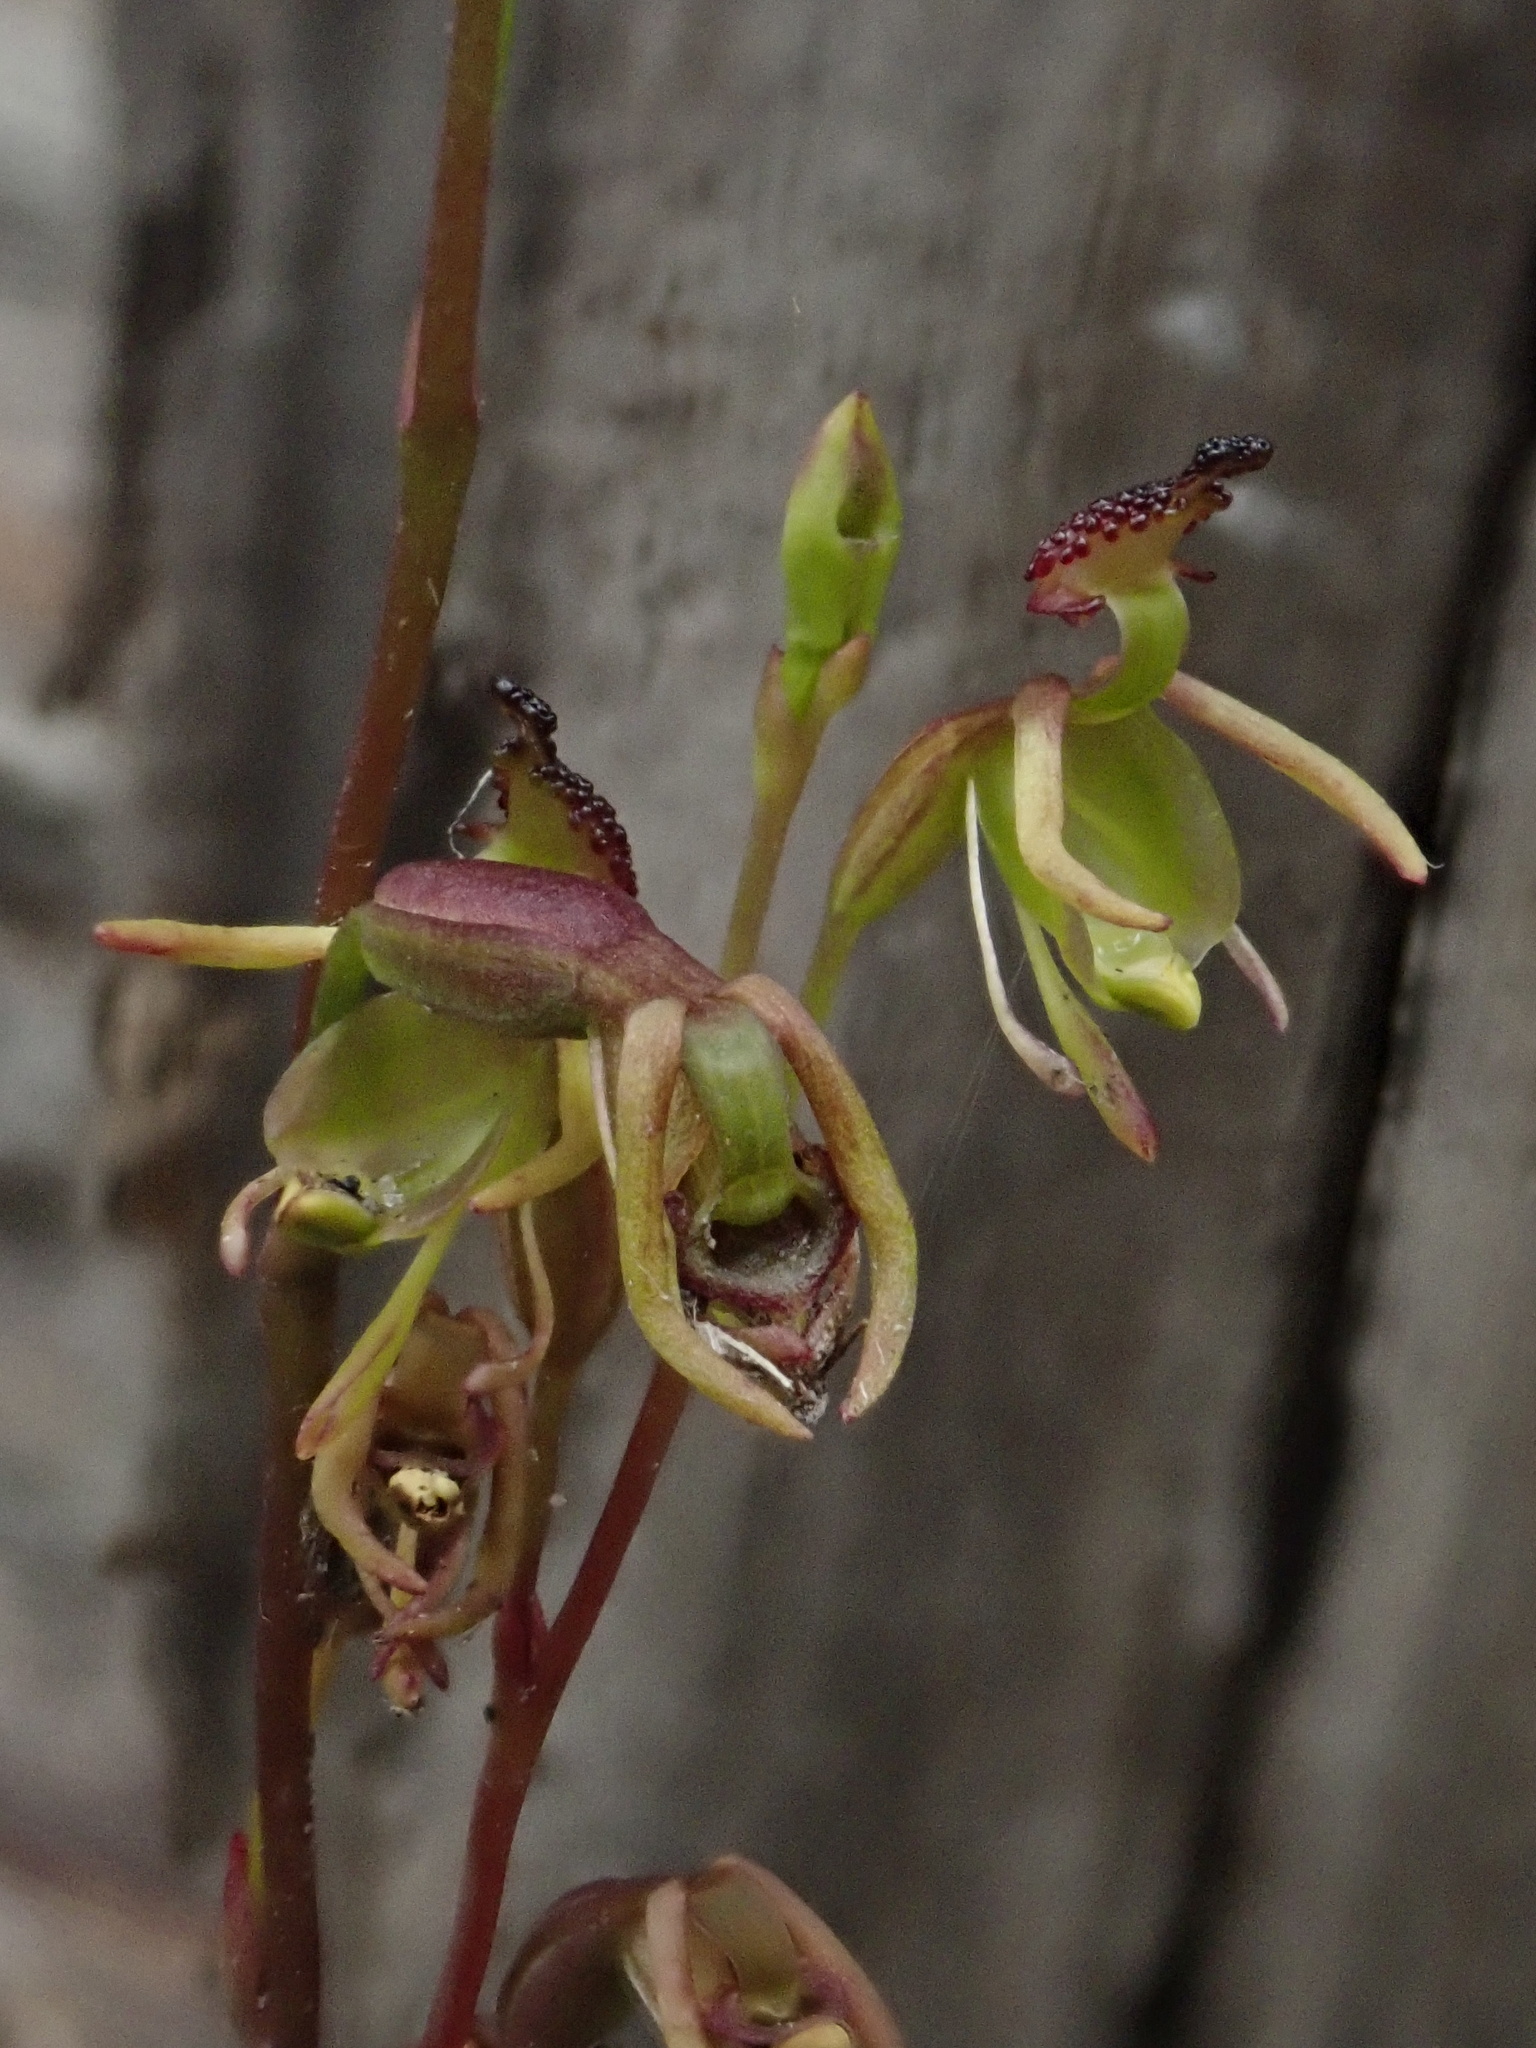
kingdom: Plantae
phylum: Tracheophyta
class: Liliopsida
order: Asparagales
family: Orchidaceae
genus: Caleana
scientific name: Caleana minor
